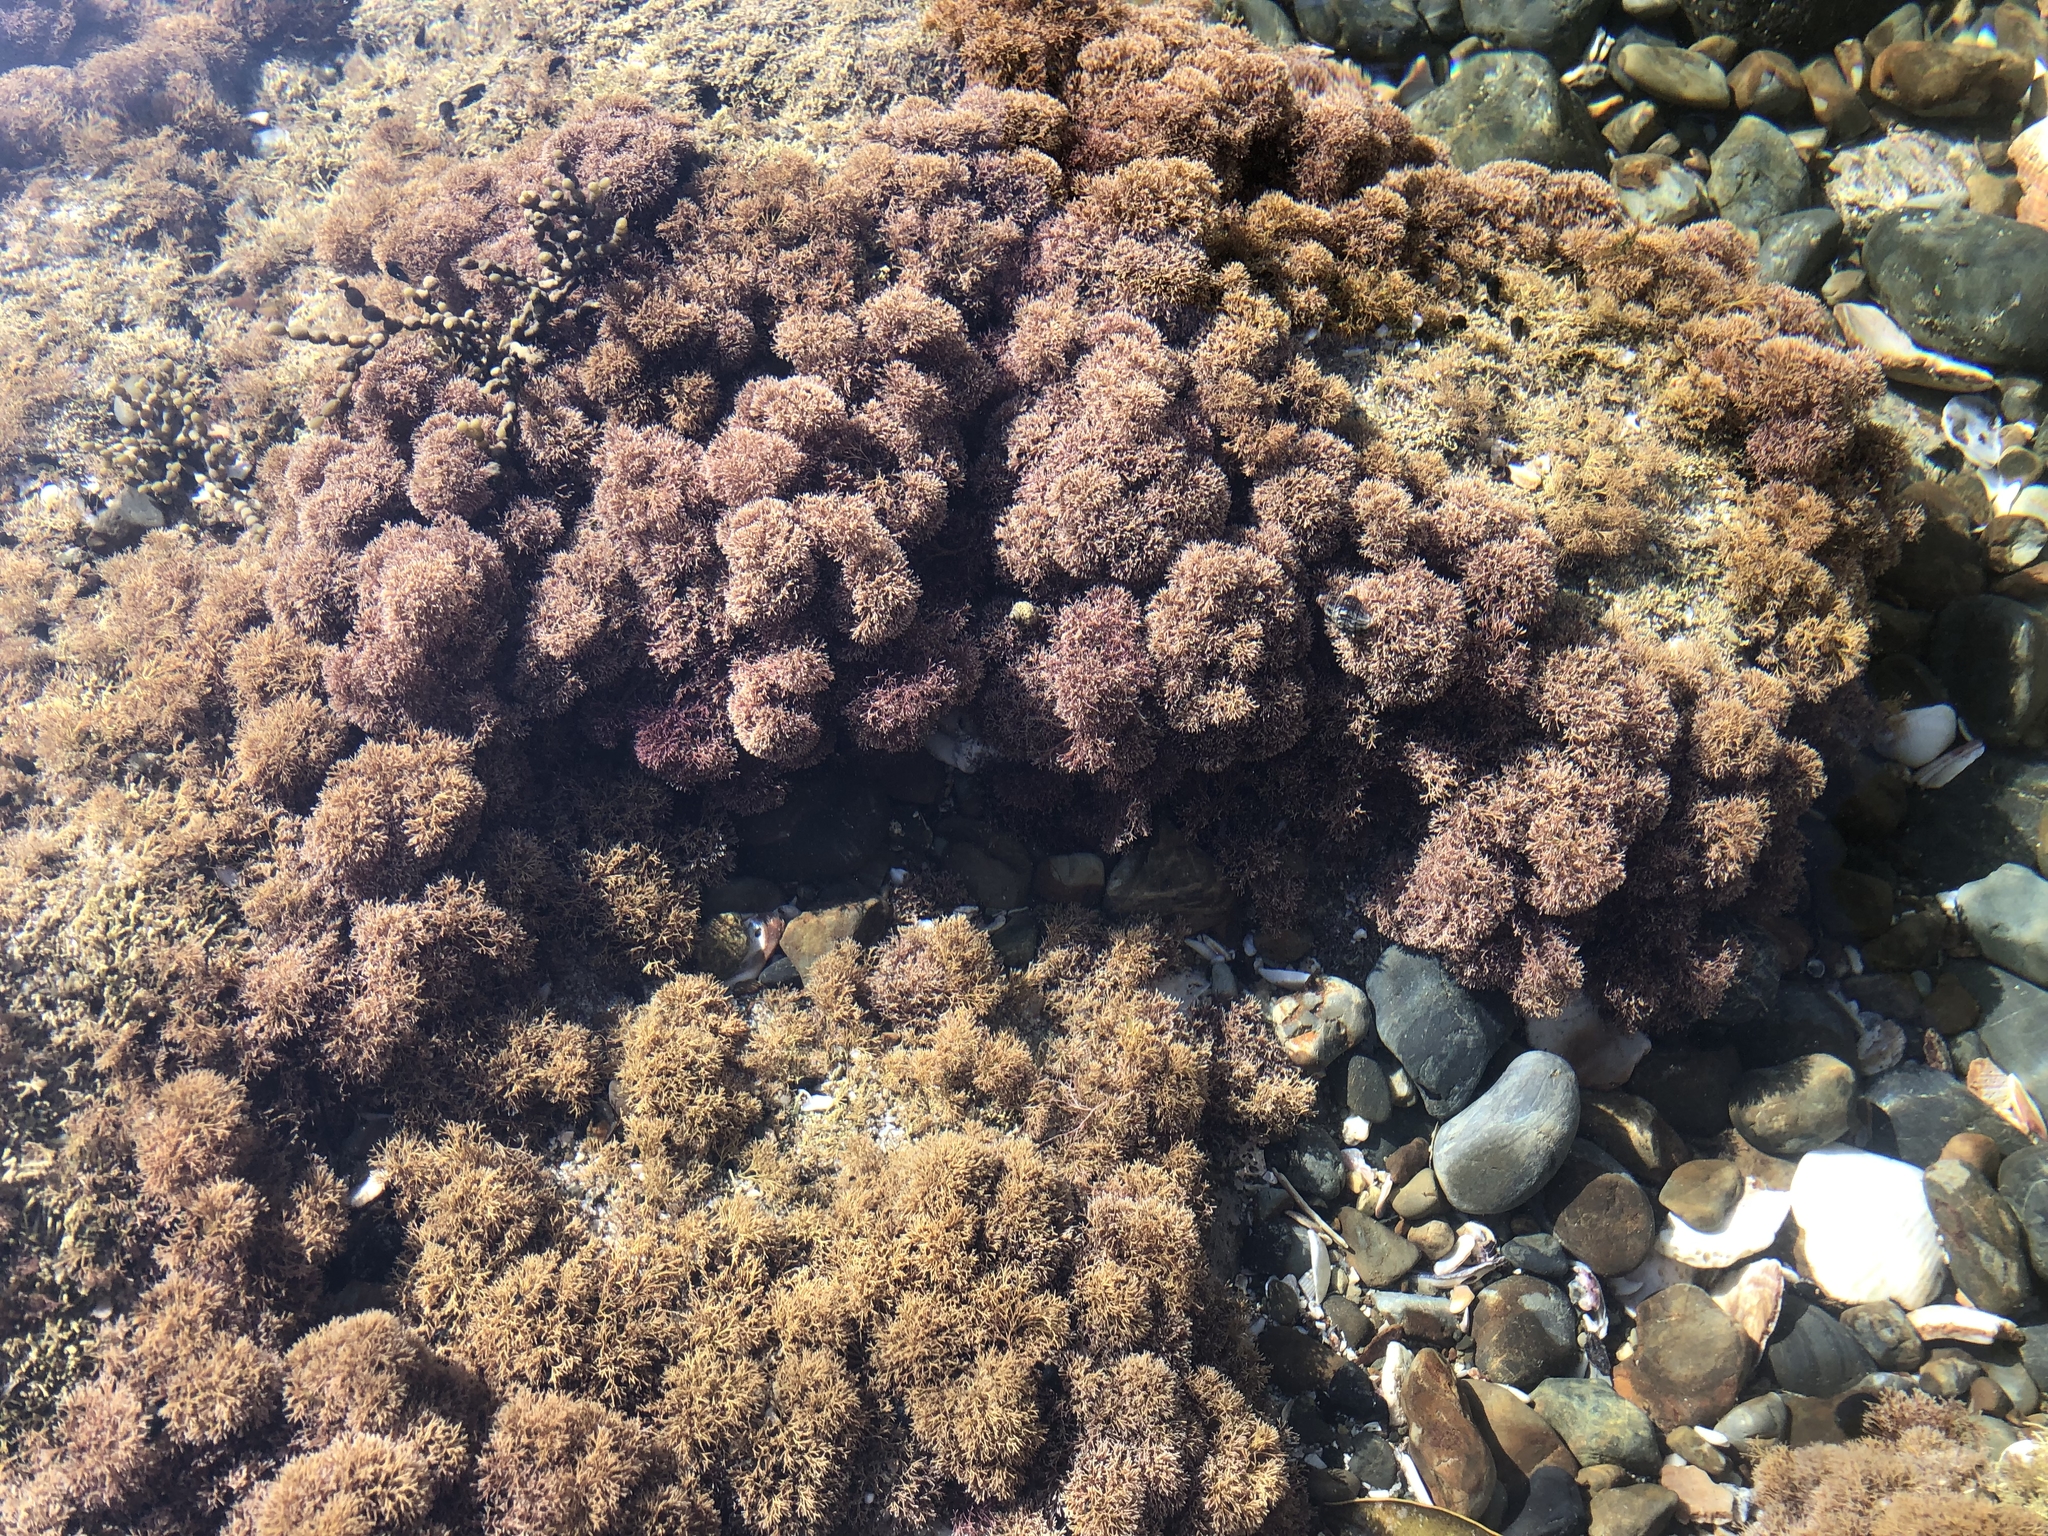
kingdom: Plantae
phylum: Rhodophyta
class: Florideophyceae
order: Corallinales
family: Corallinaceae
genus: Corallina
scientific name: Corallina officinalis
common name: Coral weed
